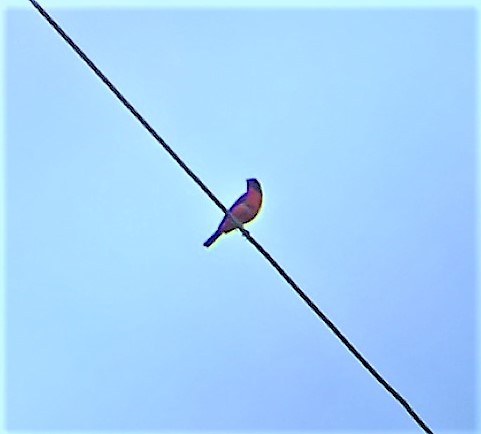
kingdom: Animalia
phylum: Chordata
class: Aves
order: Passeriformes
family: Cardinalidae
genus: Passerina
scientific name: Passerina ciris
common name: Painted bunting
